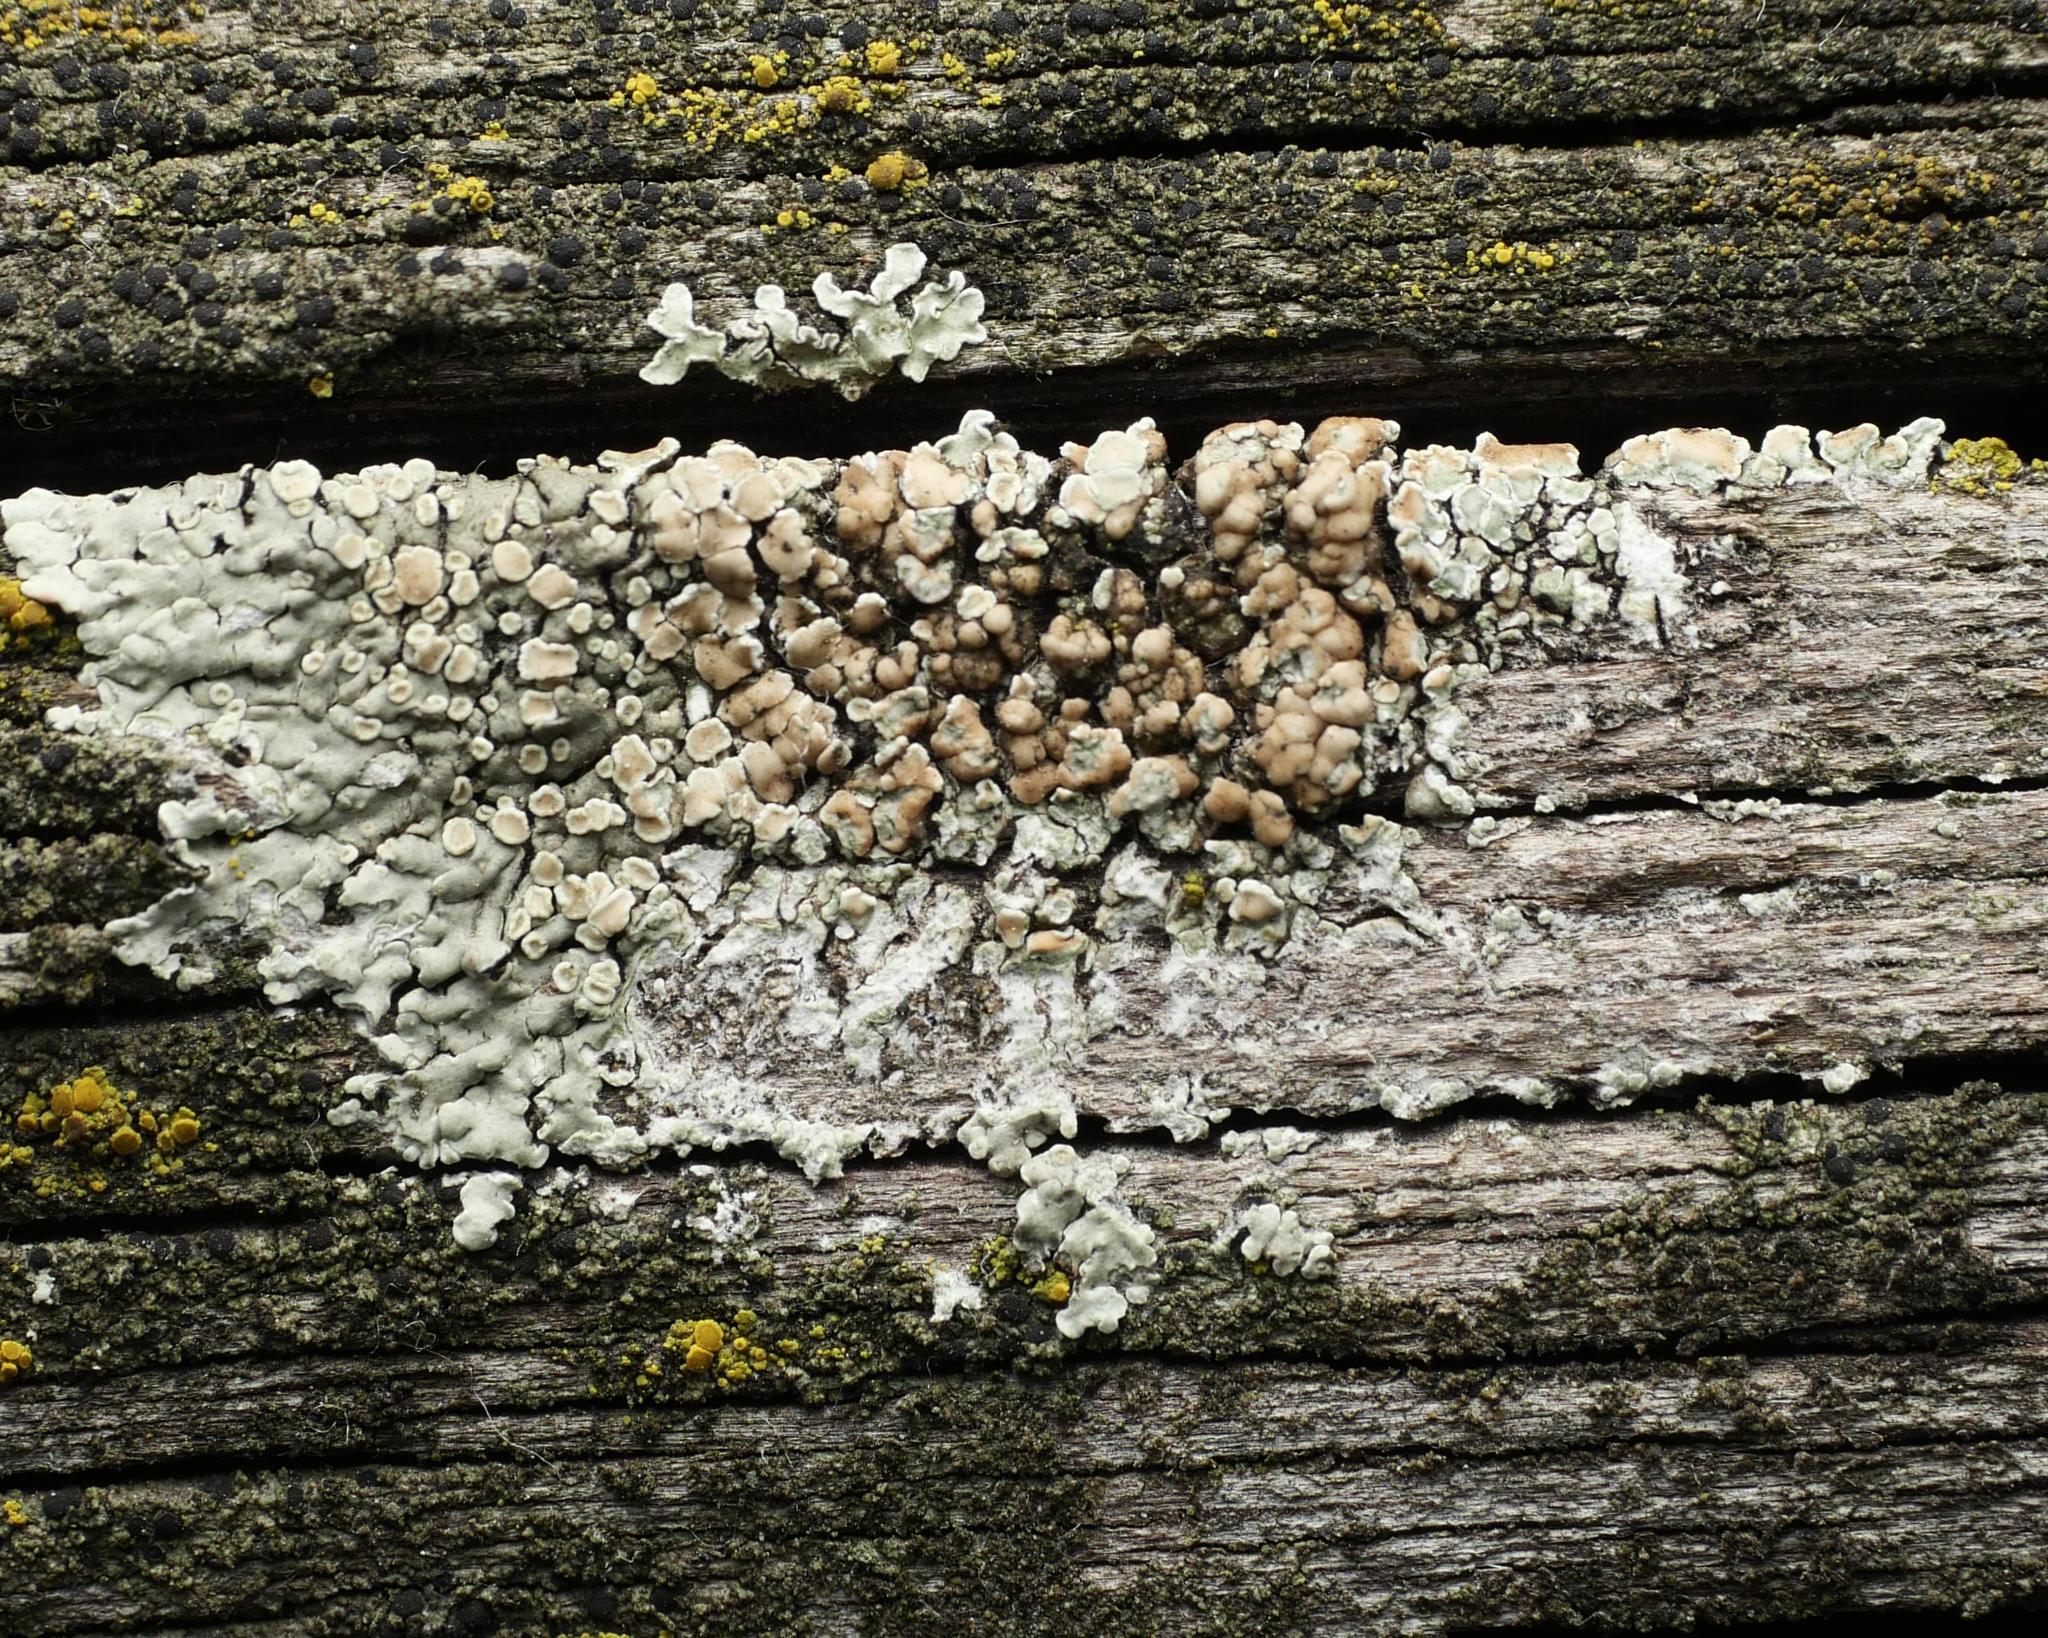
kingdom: Fungi
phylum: Ascomycota
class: Lecanoromycetes
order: Lecanorales
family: Lecanoraceae
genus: Protoparmeliopsis
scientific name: Protoparmeliopsis muralis
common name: Stonewall rim lichen
